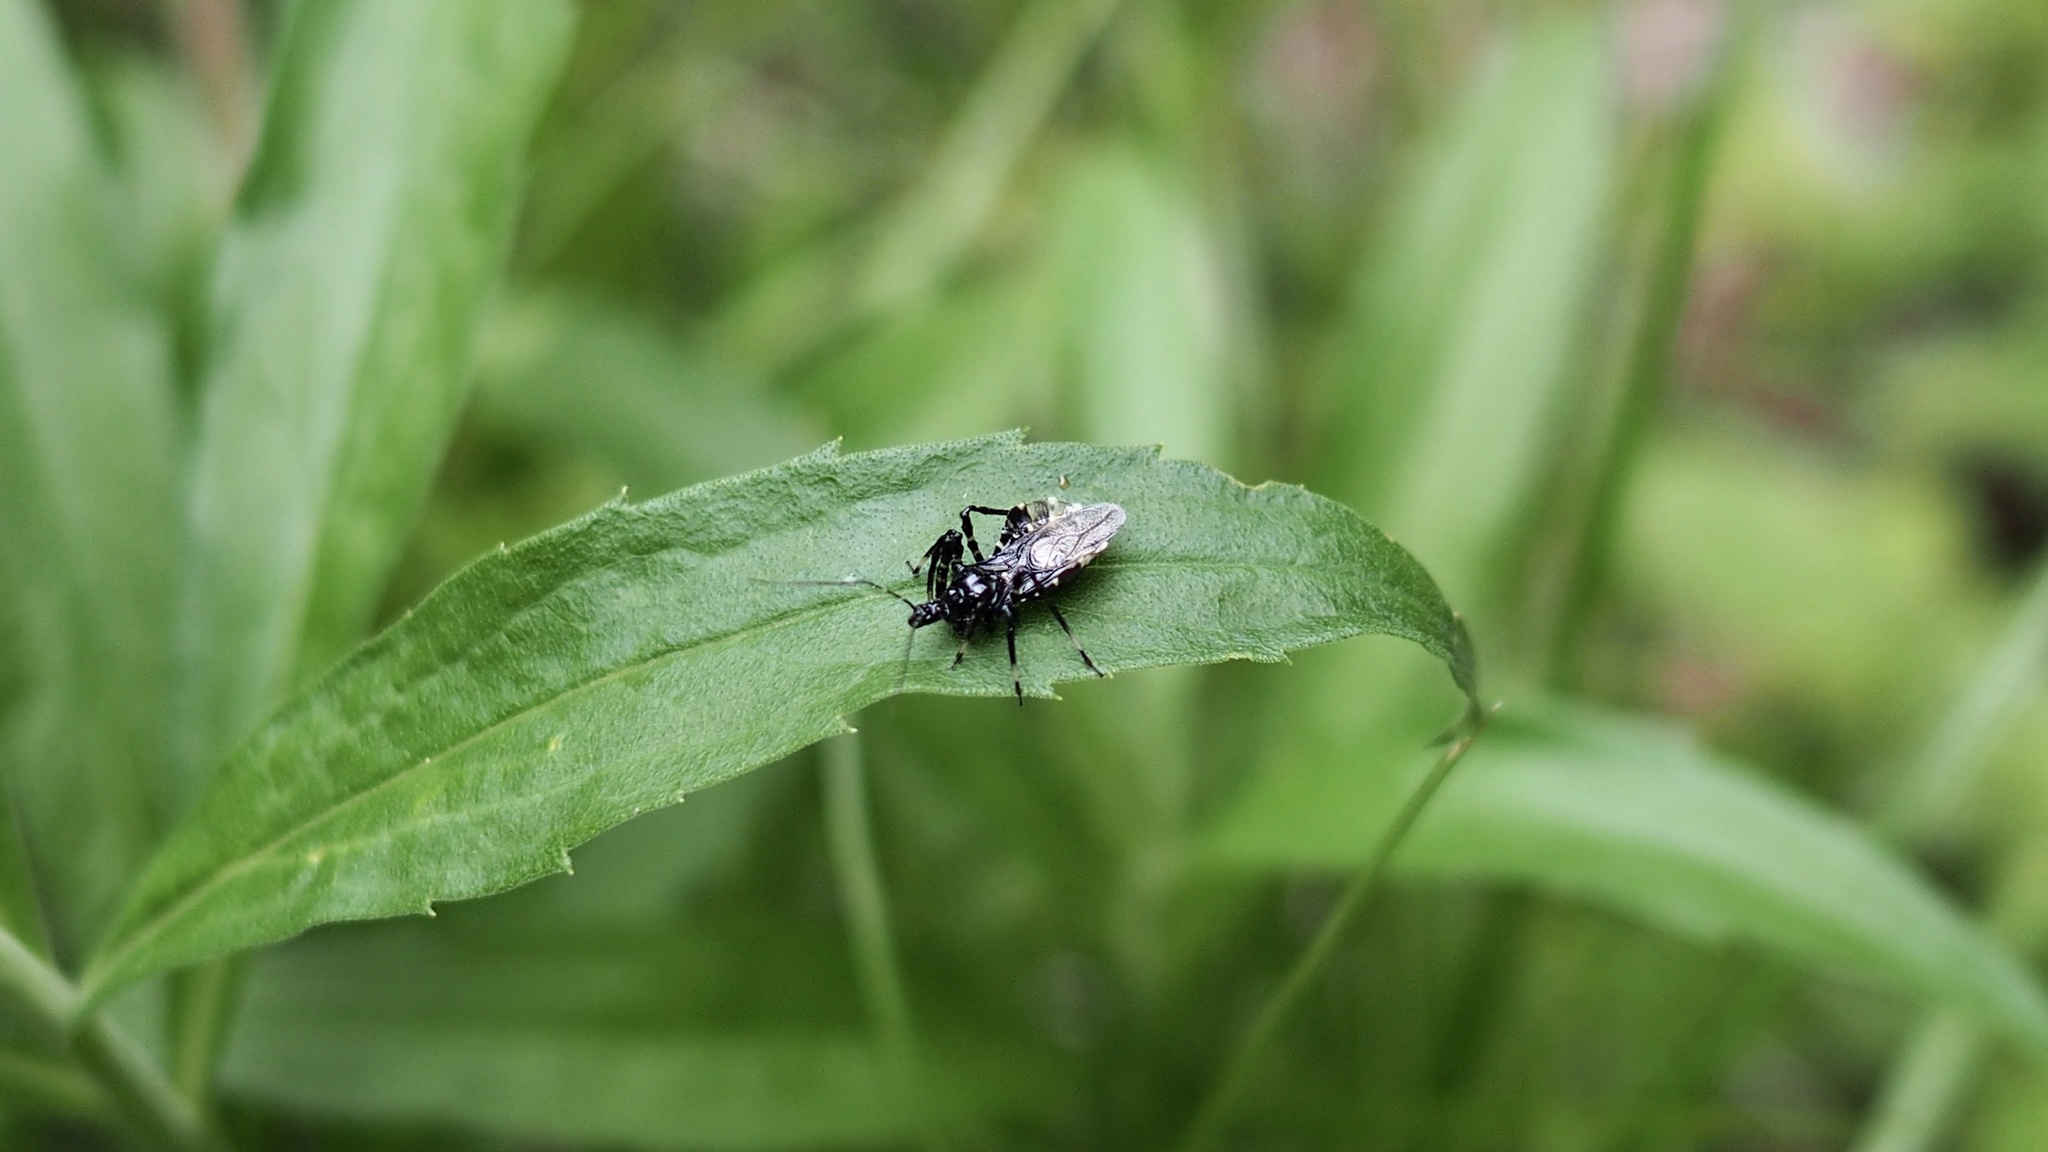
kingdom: Animalia
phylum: Arthropoda
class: Insecta
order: Hemiptera
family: Reduviidae
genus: Velinus
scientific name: Velinus nodipes
